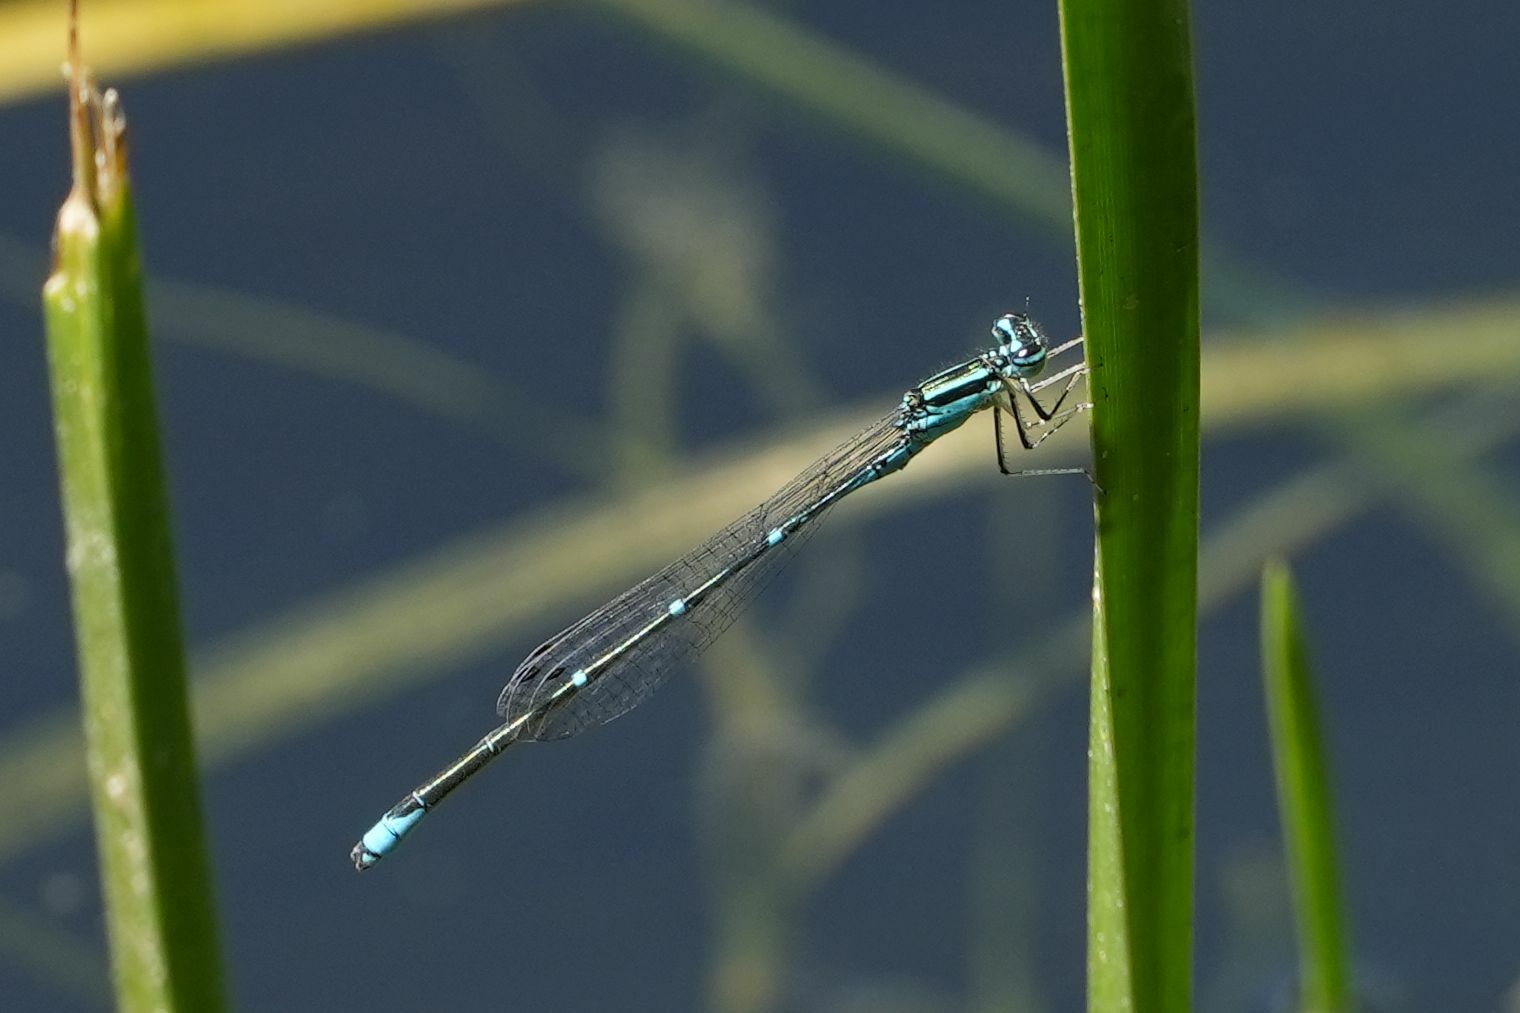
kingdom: Animalia
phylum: Arthropoda
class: Insecta
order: Odonata
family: Coenagrionidae
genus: Enallagma
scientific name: Enallagma exsulans
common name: Stream bluet
